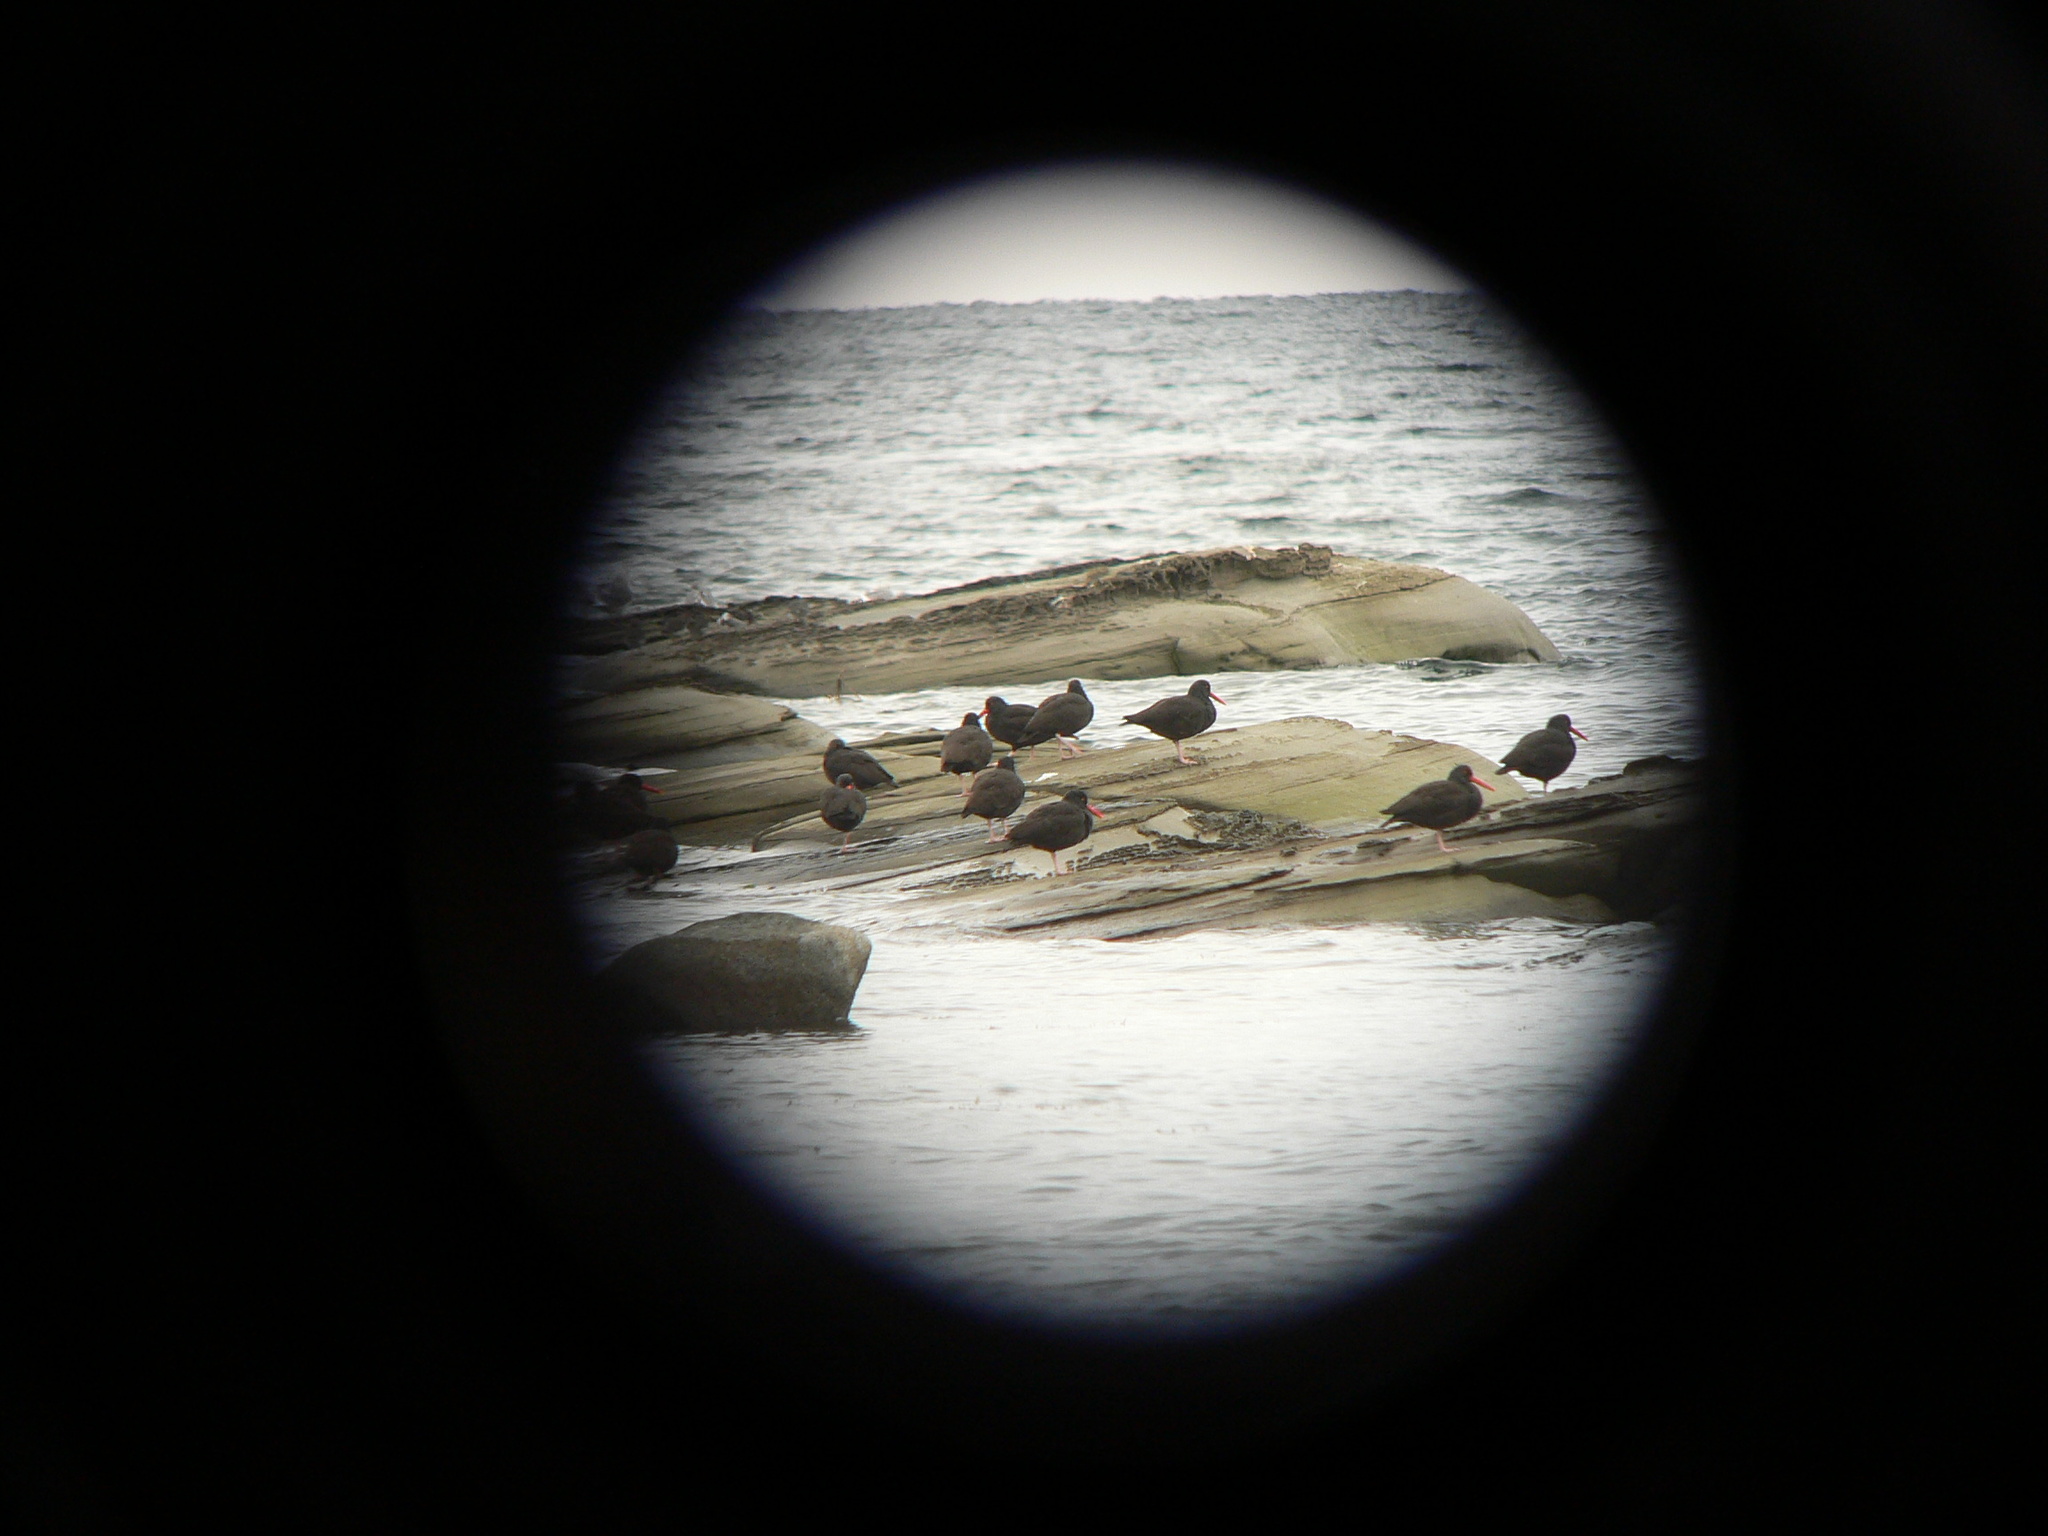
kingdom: Animalia
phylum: Chordata
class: Aves
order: Charadriiformes
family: Haematopodidae
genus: Haematopus
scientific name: Haematopus bachmani
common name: Black oystercatcher
